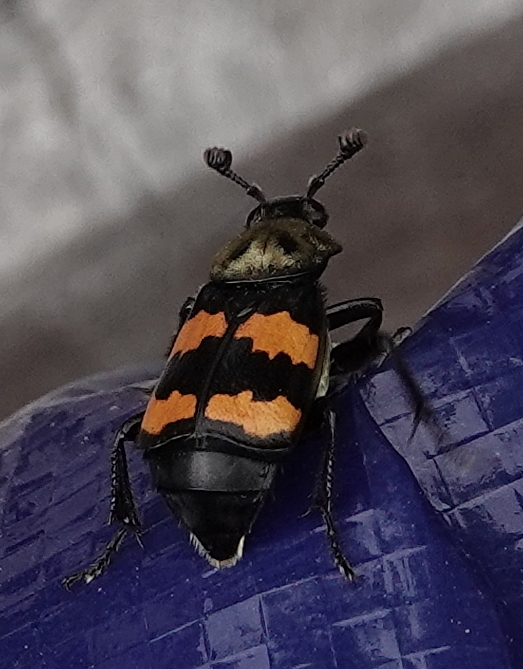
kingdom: Animalia
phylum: Arthropoda
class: Insecta
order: Coleoptera
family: Staphylinidae
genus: Nicrophorus
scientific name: Nicrophorus tomentosus
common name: Tomentose burying beetle
